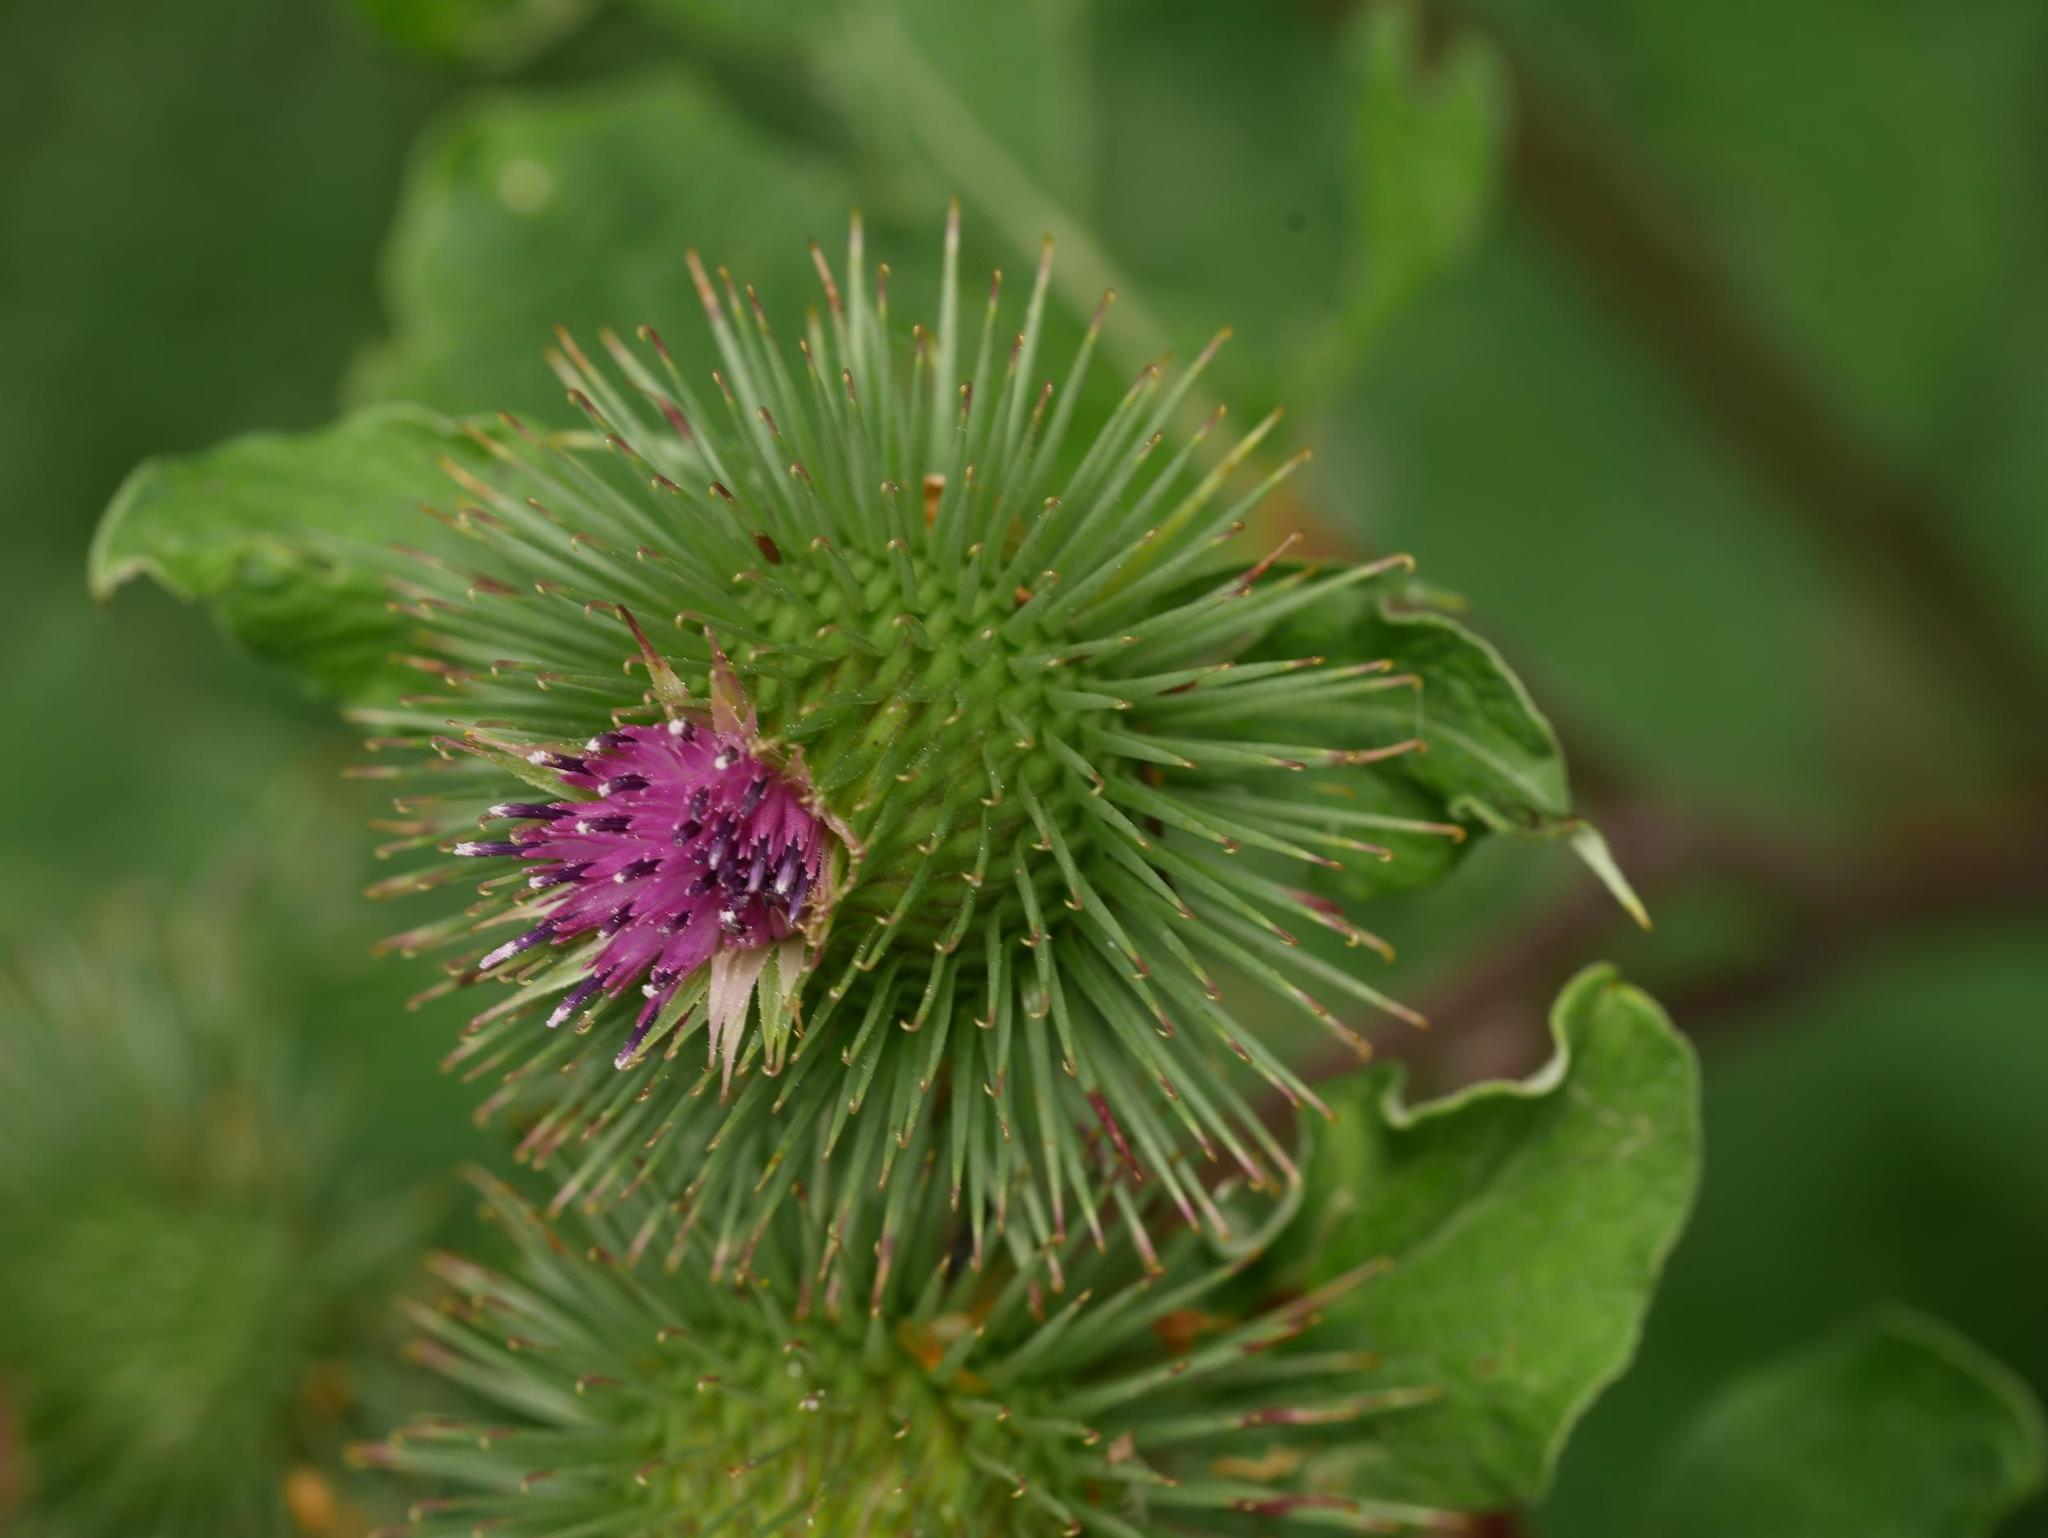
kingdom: Plantae
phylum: Tracheophyta
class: Magnoliopsida
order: Asterales
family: Asteraceae
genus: Arctium
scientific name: Arctium lappa
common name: Greater burdock
